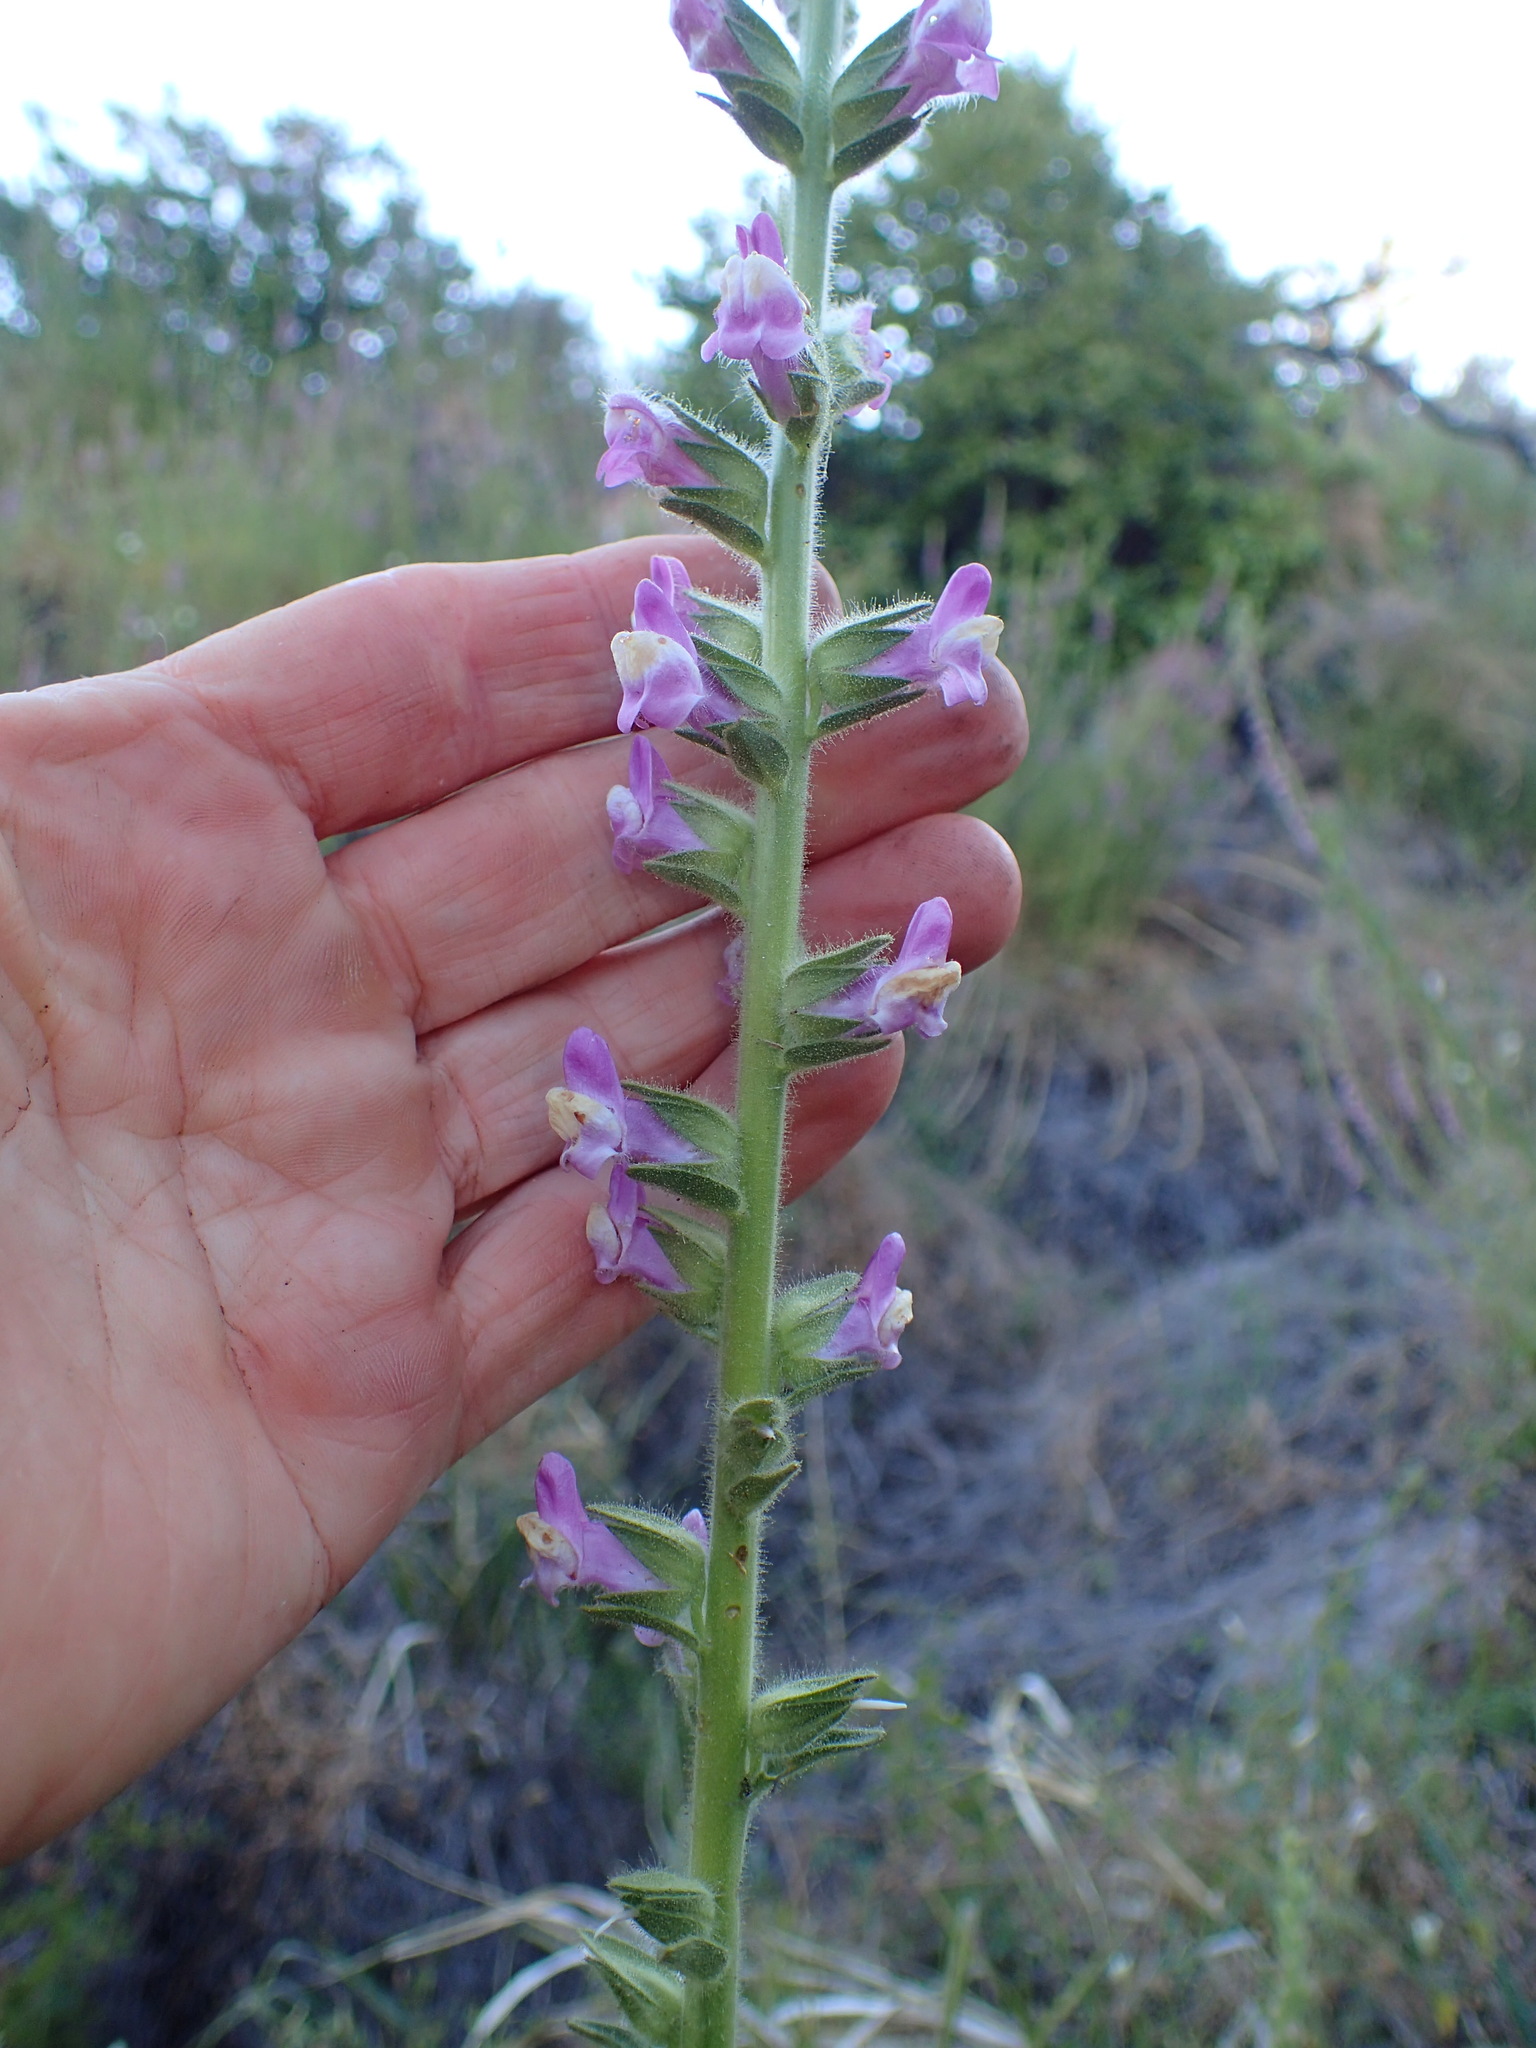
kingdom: Plantae
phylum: Tracheophyta
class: Magnoliopsida
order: Lamiales
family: Plantaginaceae
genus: Sairocarpus
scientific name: Sairocarpus multiflorus
